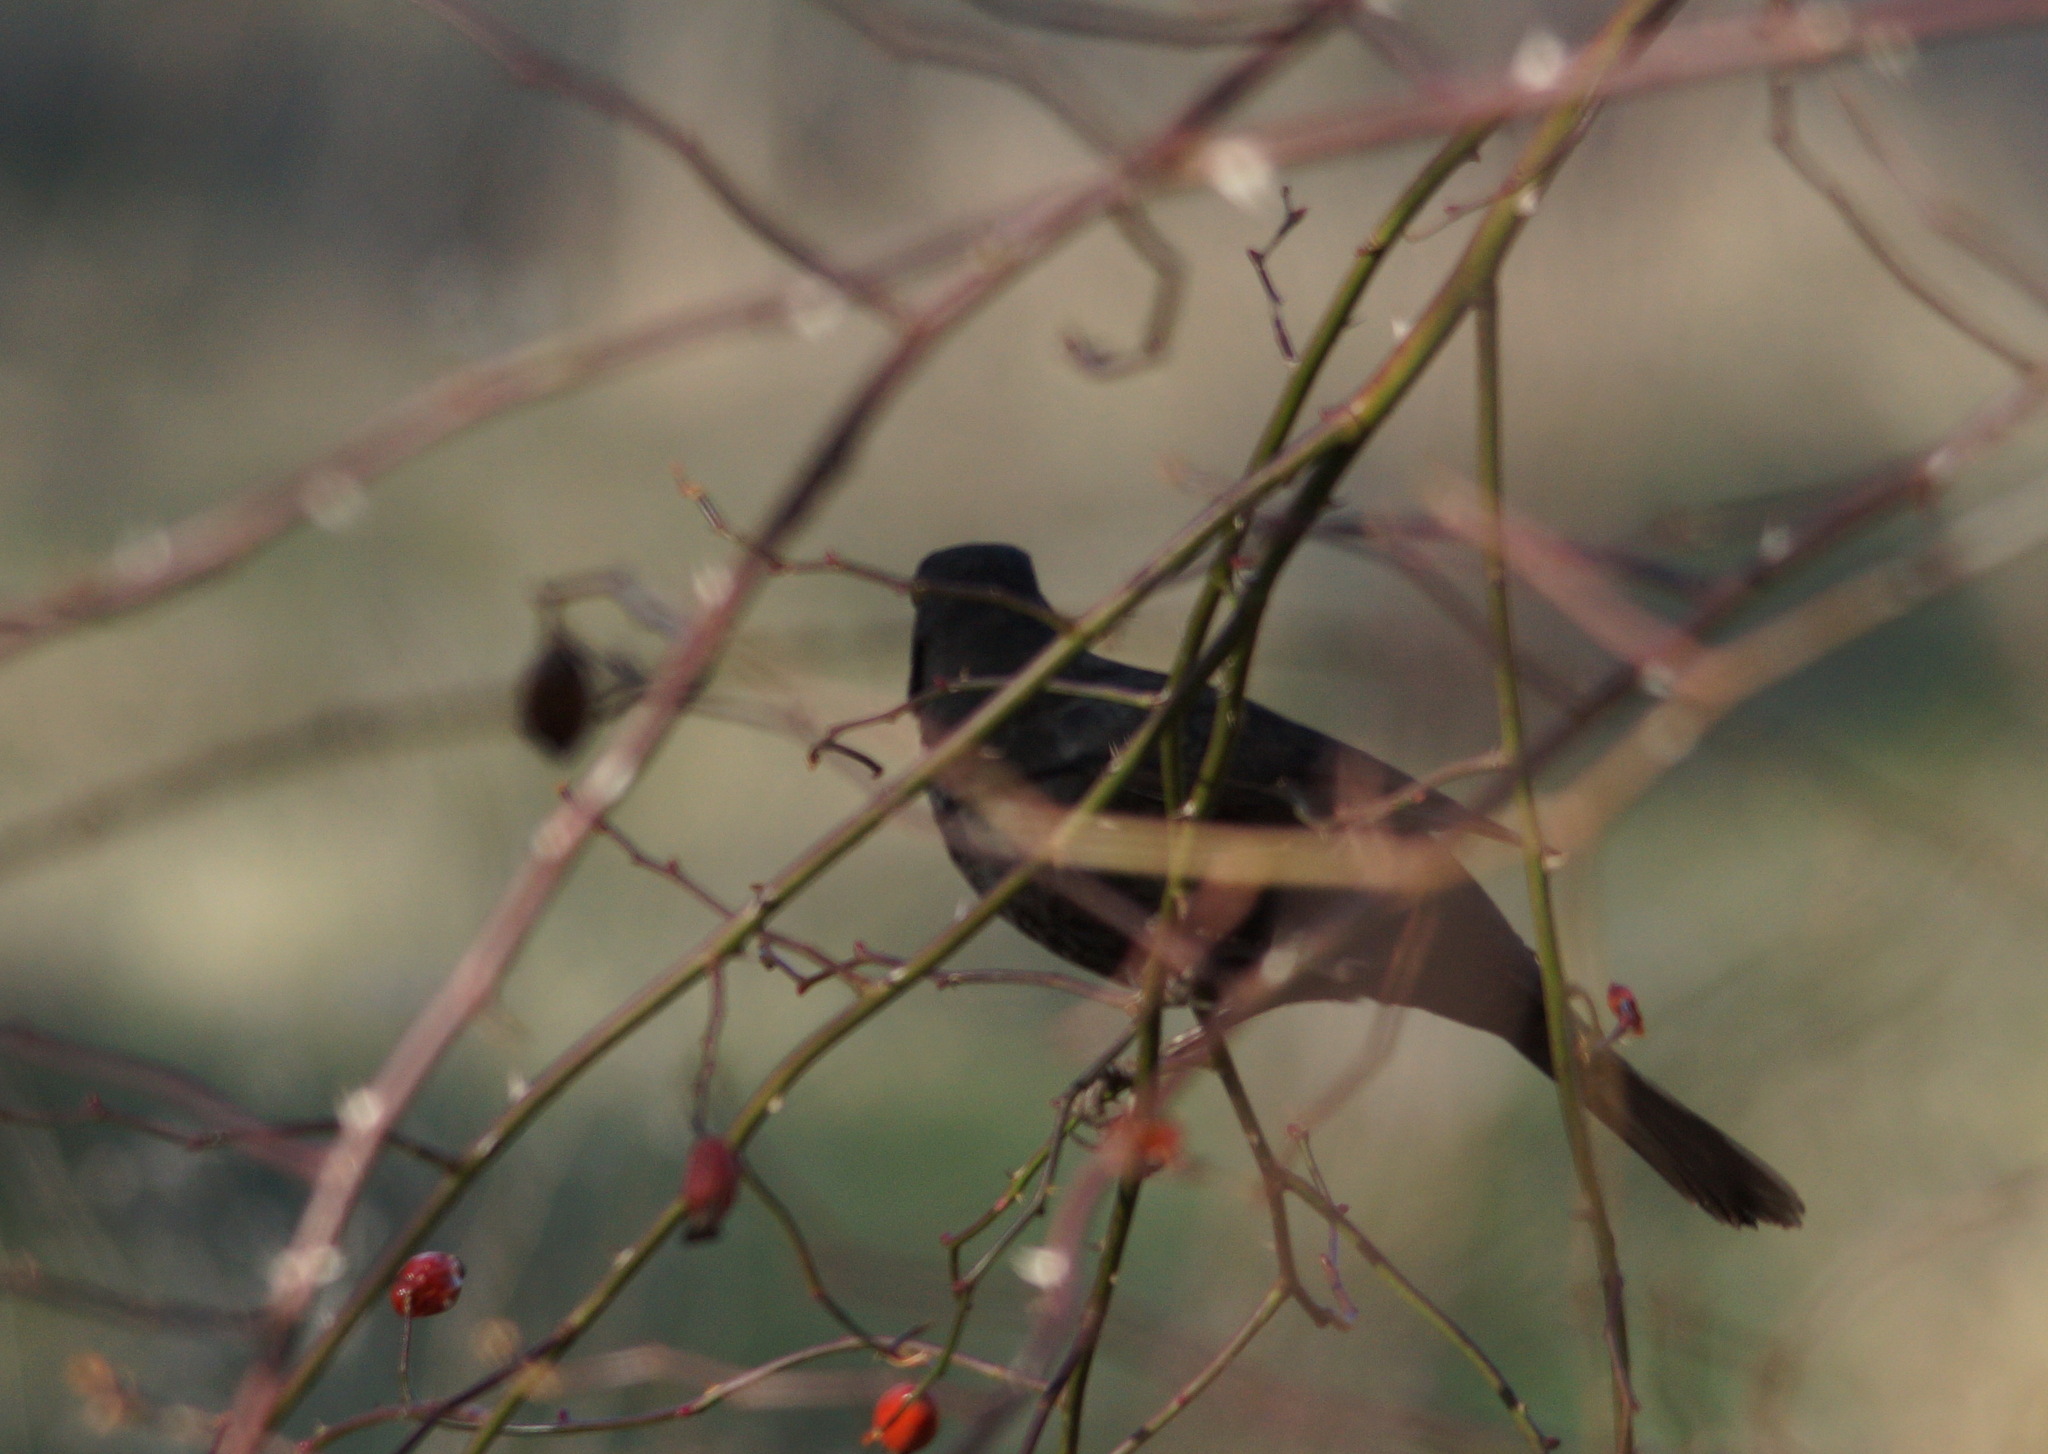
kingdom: Animalia
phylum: Chordata
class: Aves
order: Passeriformes
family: Turdidae
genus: Turdus
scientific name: Turdus merula
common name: Common blackbird
